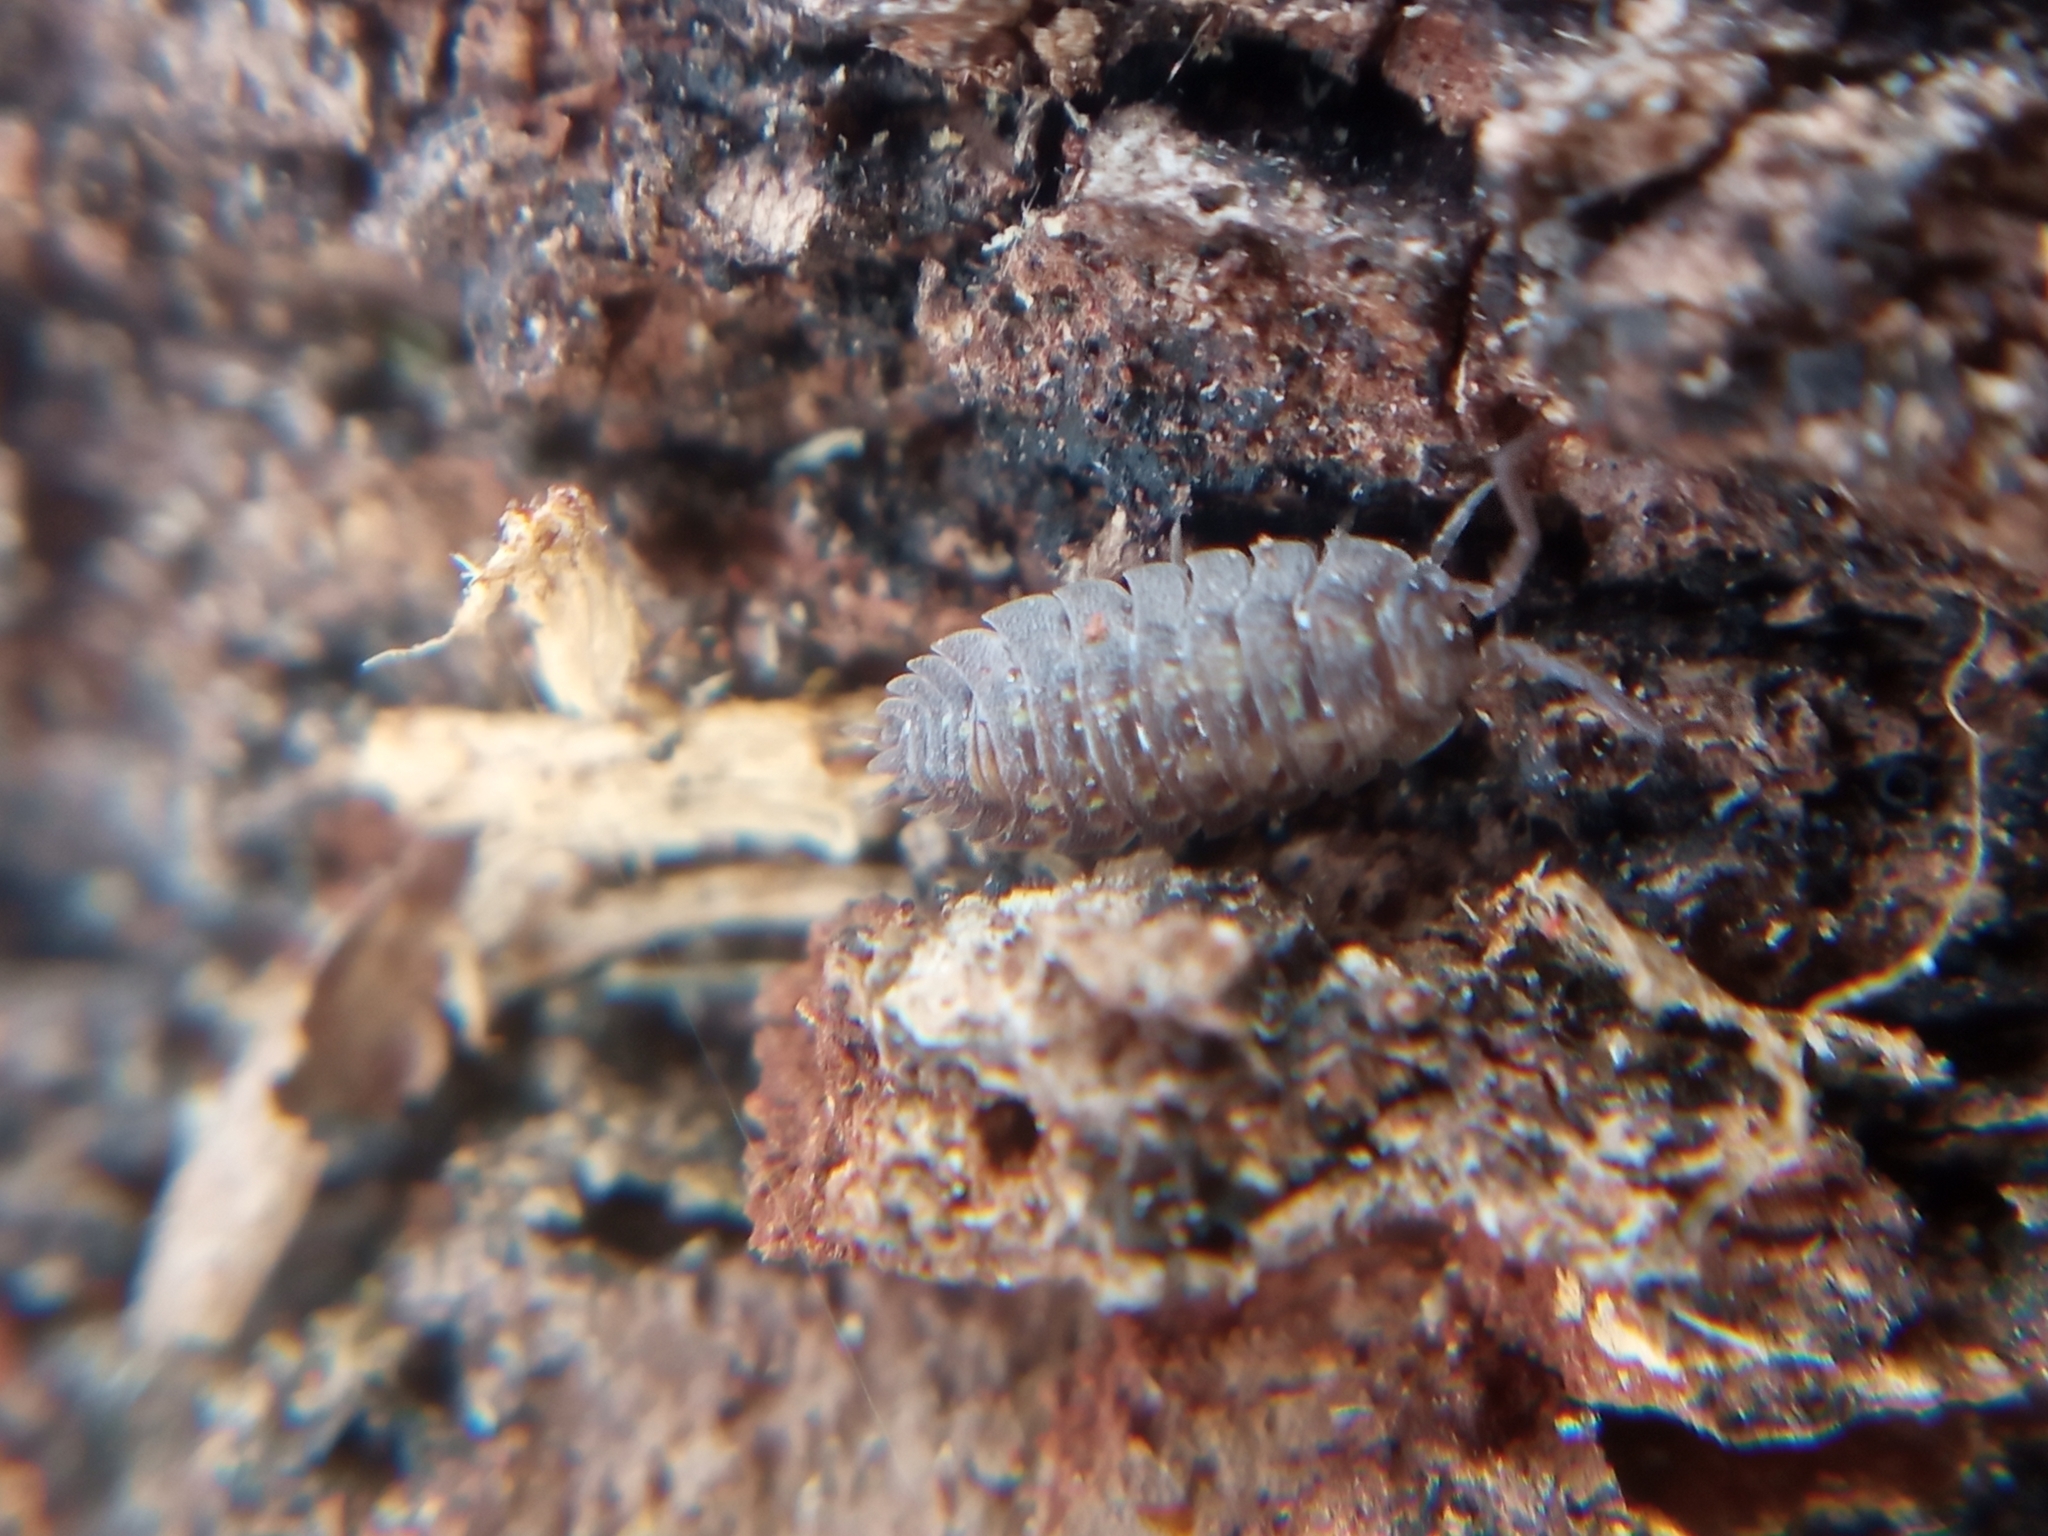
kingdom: Animalia
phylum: Arthropoda
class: Malacostraca
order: Isopoda
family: Oniscidae
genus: Oniscus
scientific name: Oniscus asellus
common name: Common shiny woodlouse
